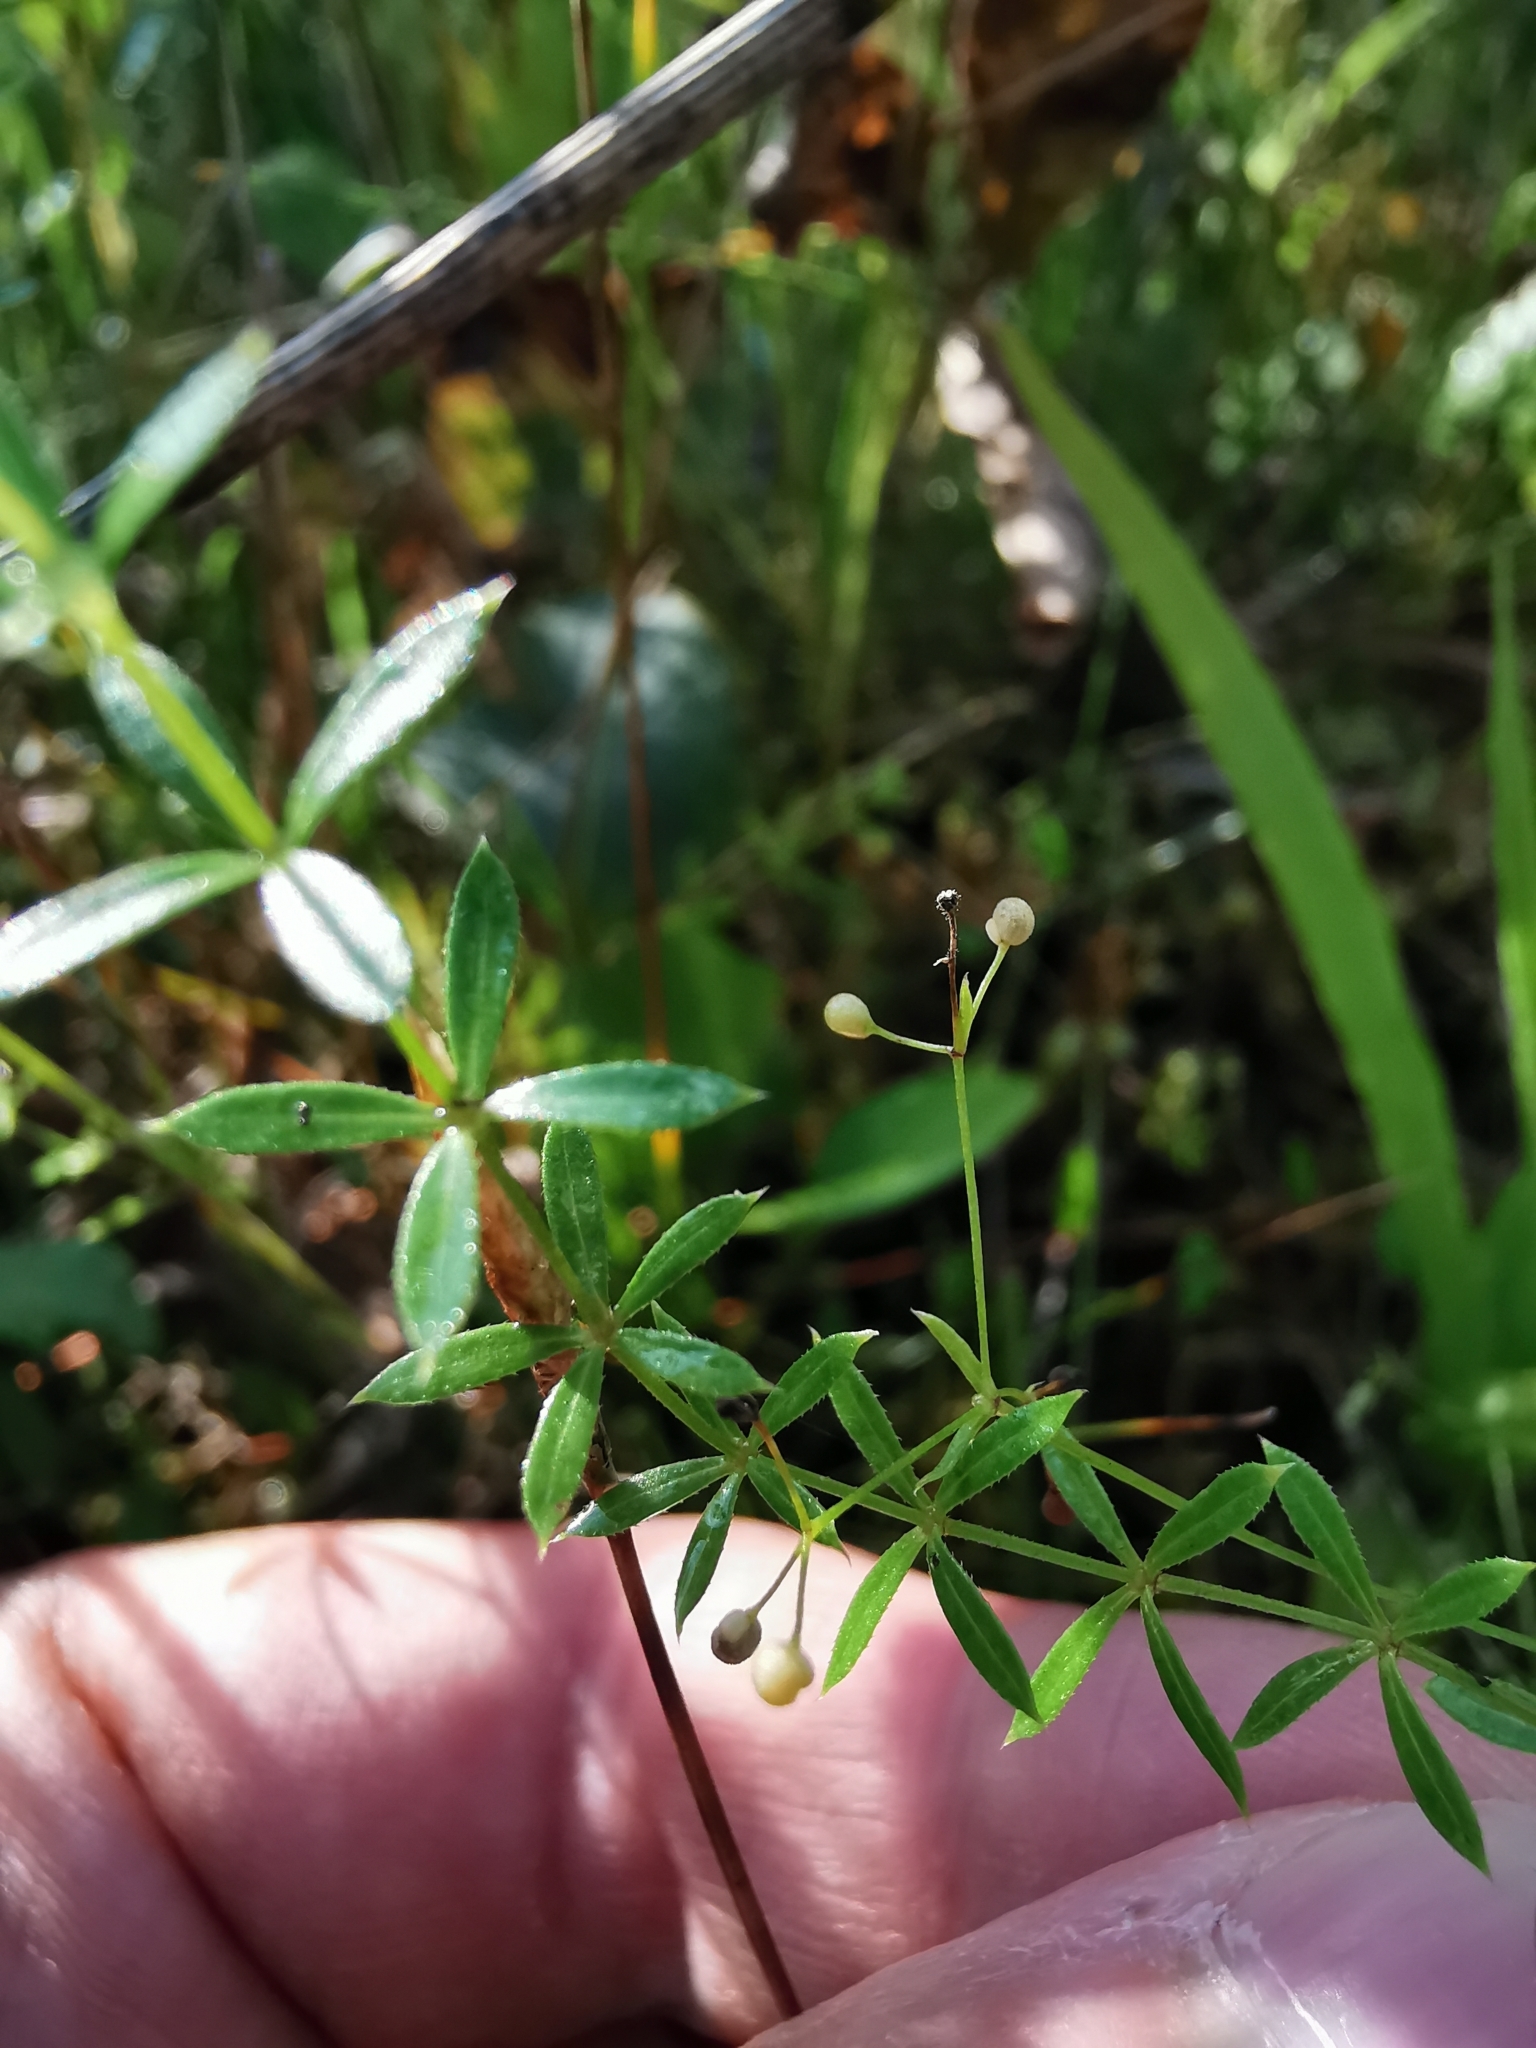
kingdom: Plantae
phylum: Tracheophyta
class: Magnoliopsida
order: Gentianales
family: Rubiaceae
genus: Galium
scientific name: Galium palustre
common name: Common marsh-bedstraw
